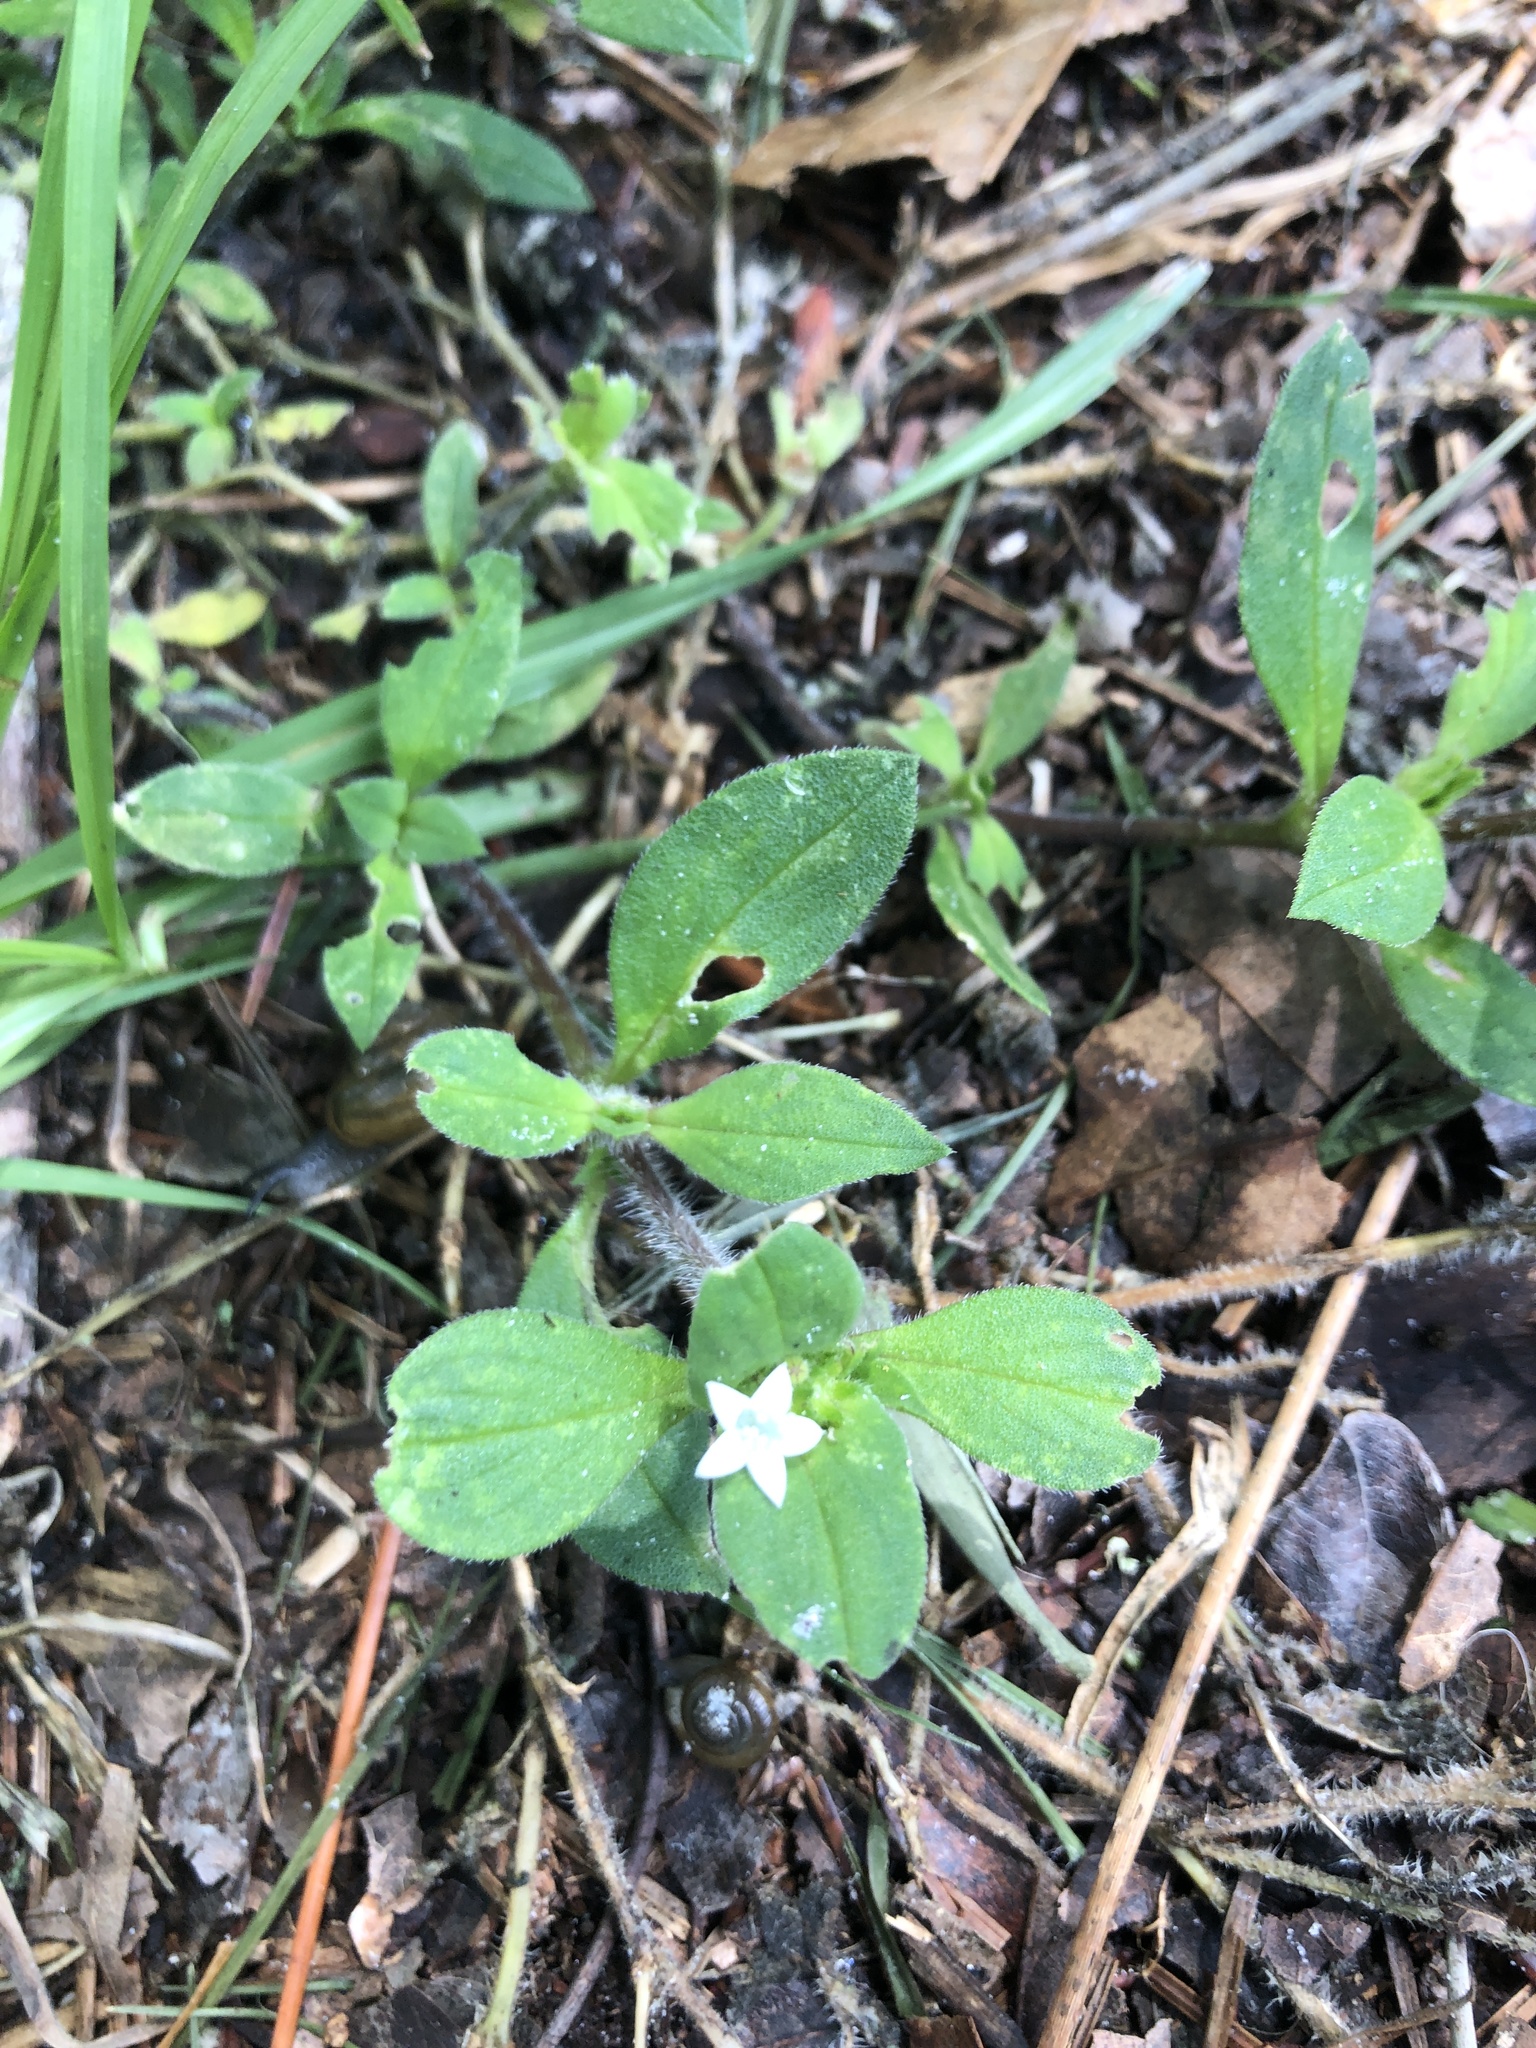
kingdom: Plantae
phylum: Tracheophyta
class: Magnoliopsida
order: Gentianales
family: Rubiaceae
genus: Richardia
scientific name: Richardia scabra
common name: Rough mexican clover
